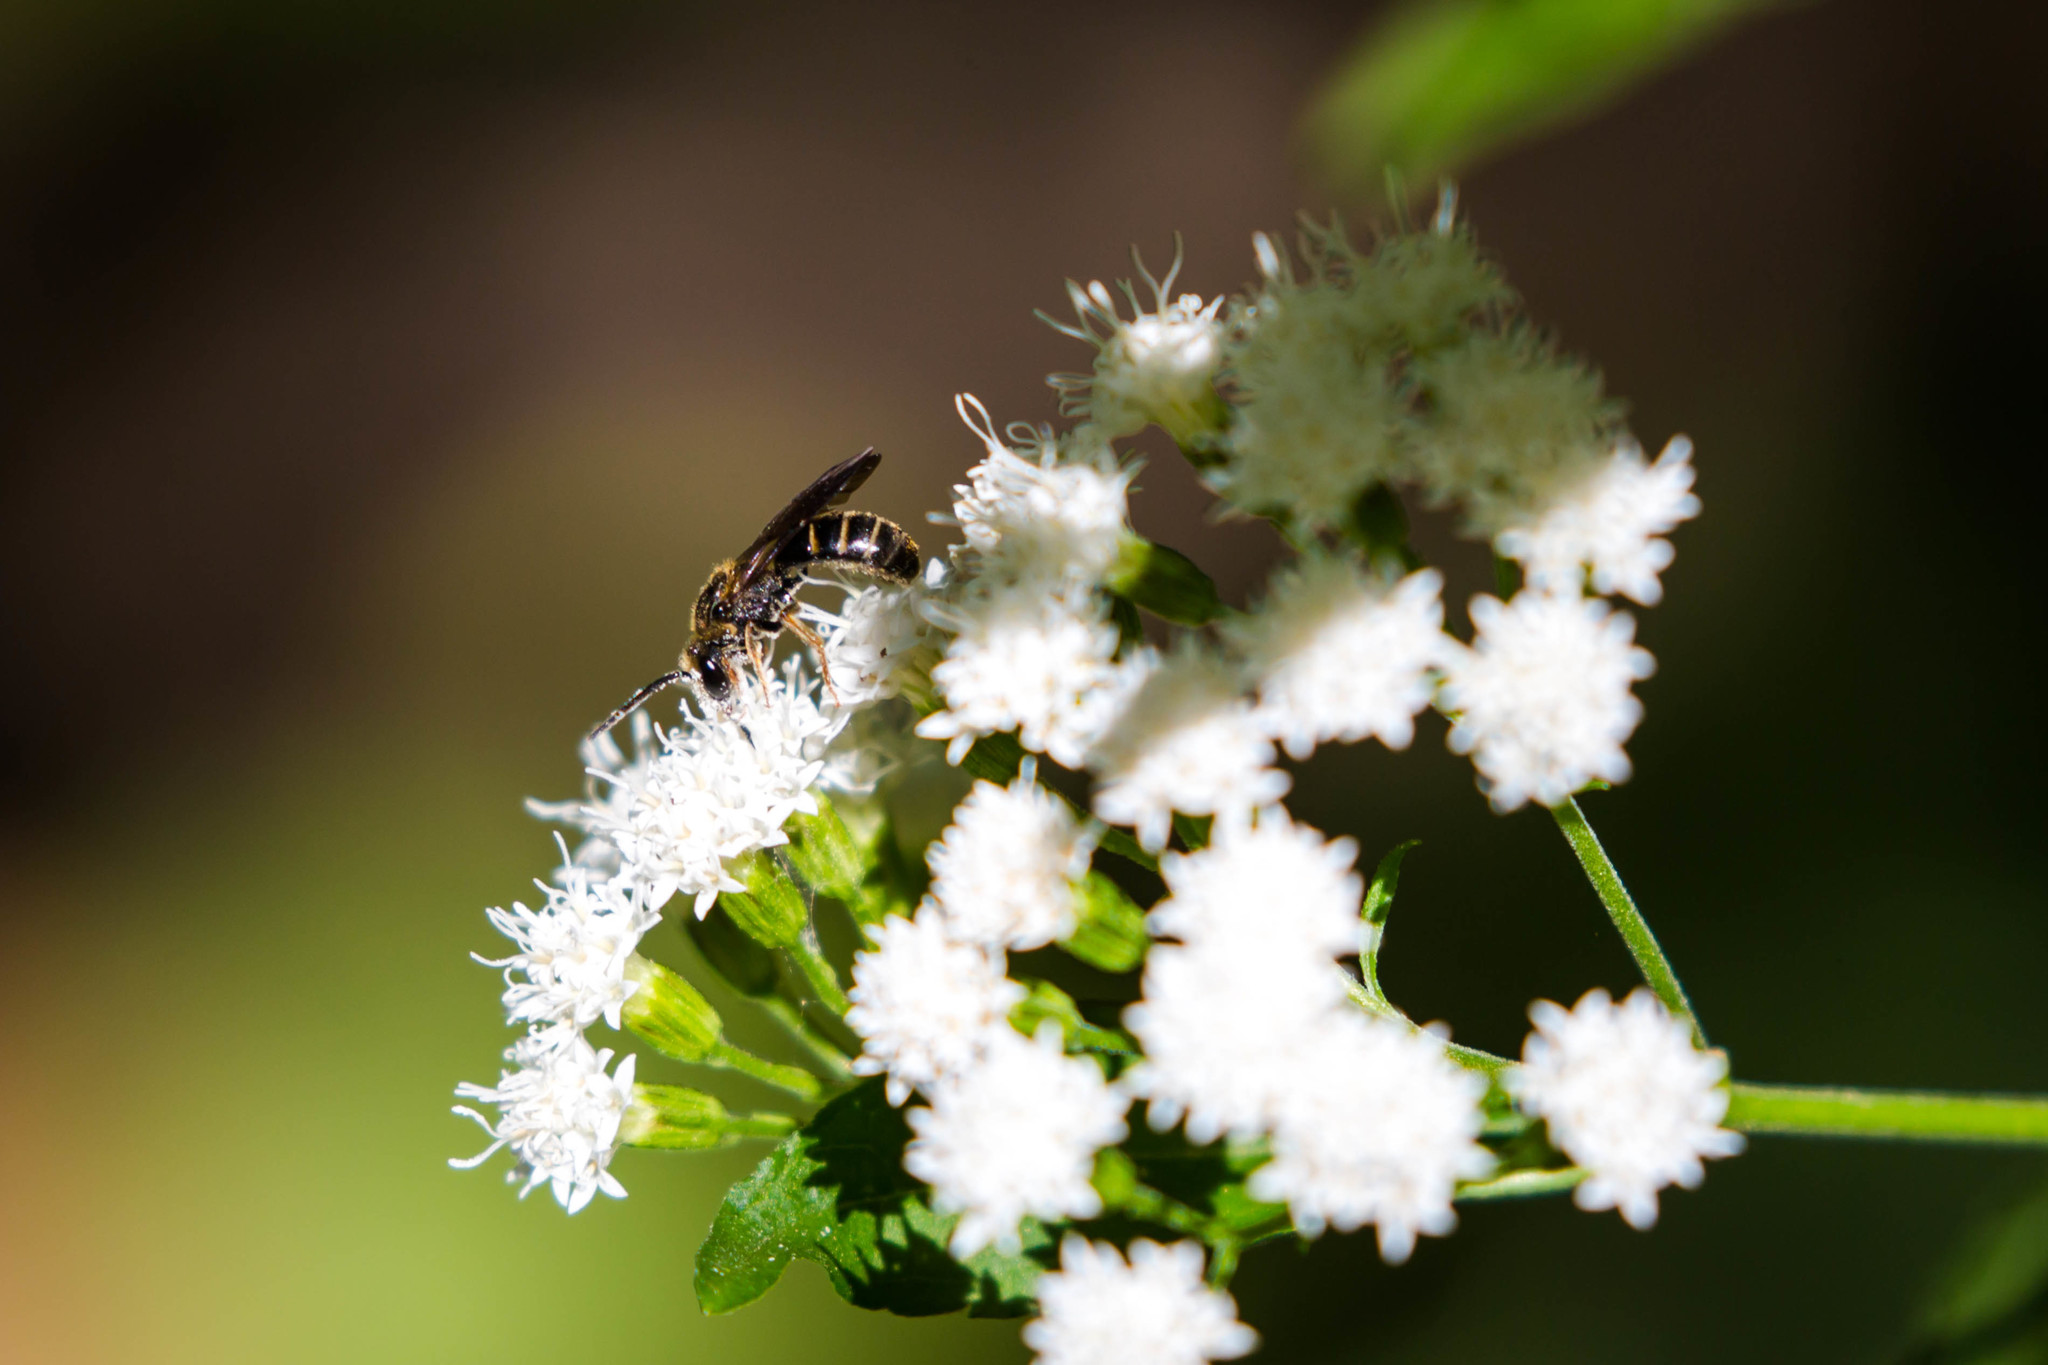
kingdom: Animalia
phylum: Arthropoda
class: Insecta
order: Hymenoptera
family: Halictidae
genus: Lasioglossum
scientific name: Lasioglossum fuscipenne
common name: Brown-winged sweat bee
